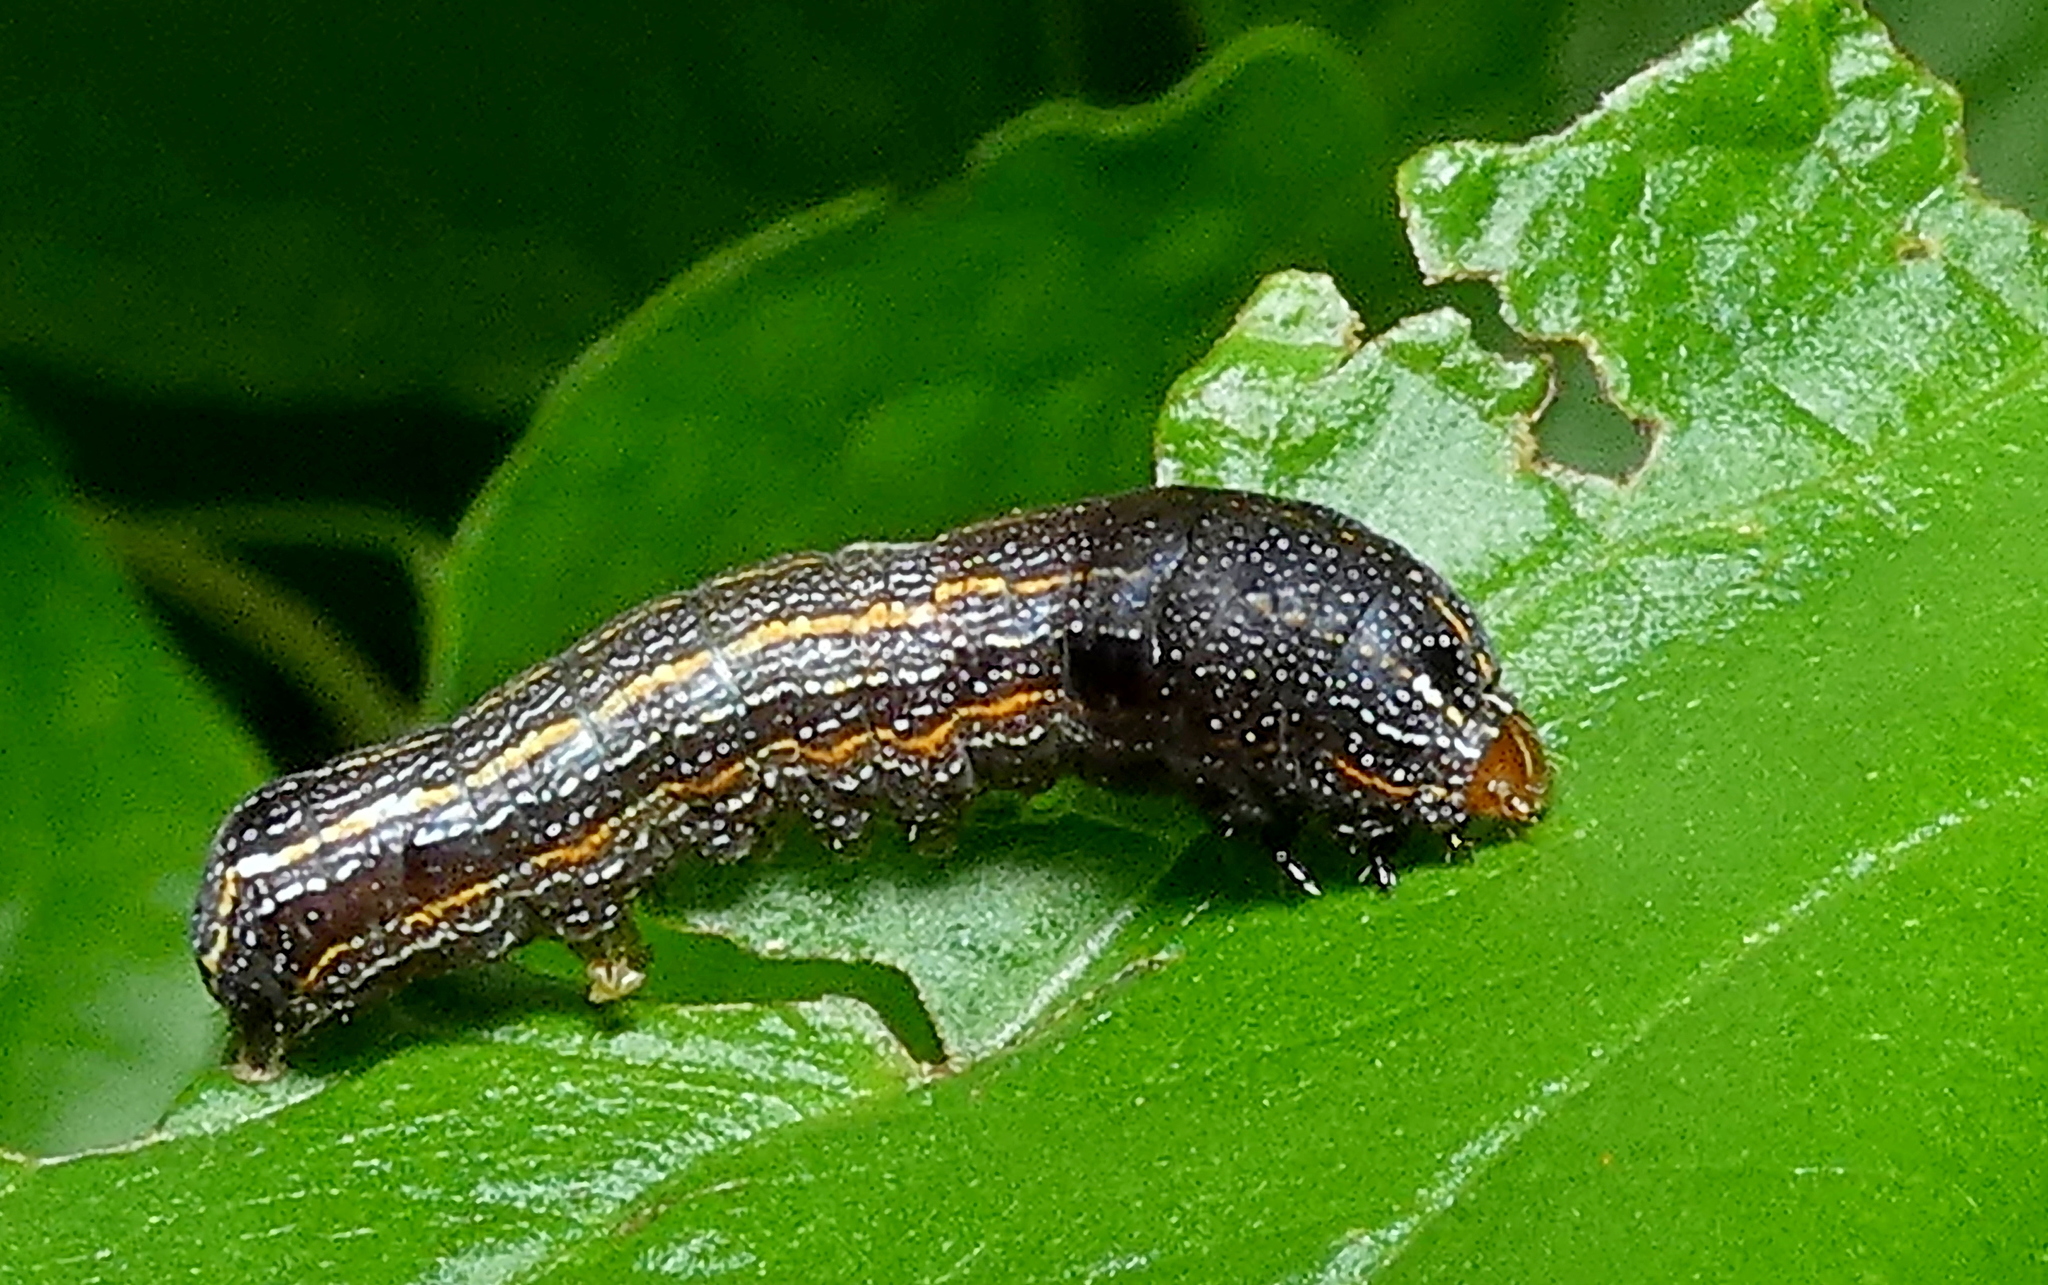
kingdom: Animalia
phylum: Arthropoda
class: Insecta
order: Lepidoptera
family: Noctuidae
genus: Spodoptera
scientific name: Spodoptera cosmioides
